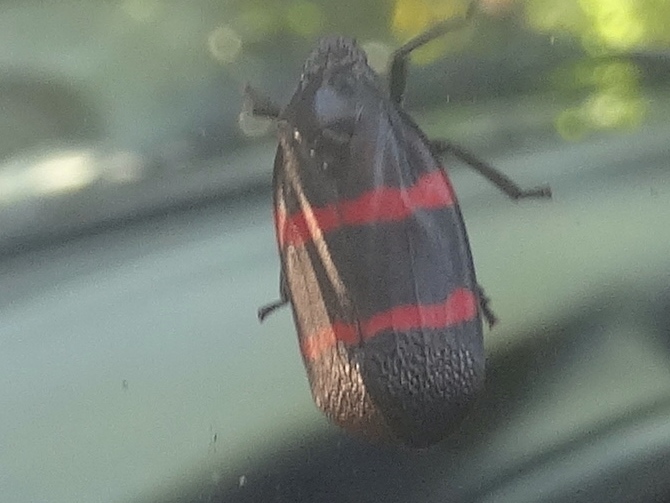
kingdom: Animalia
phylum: Arthropoda
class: Insecta
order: Hemiptera
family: Cercopidae
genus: Huaina
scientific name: Huaina inca
